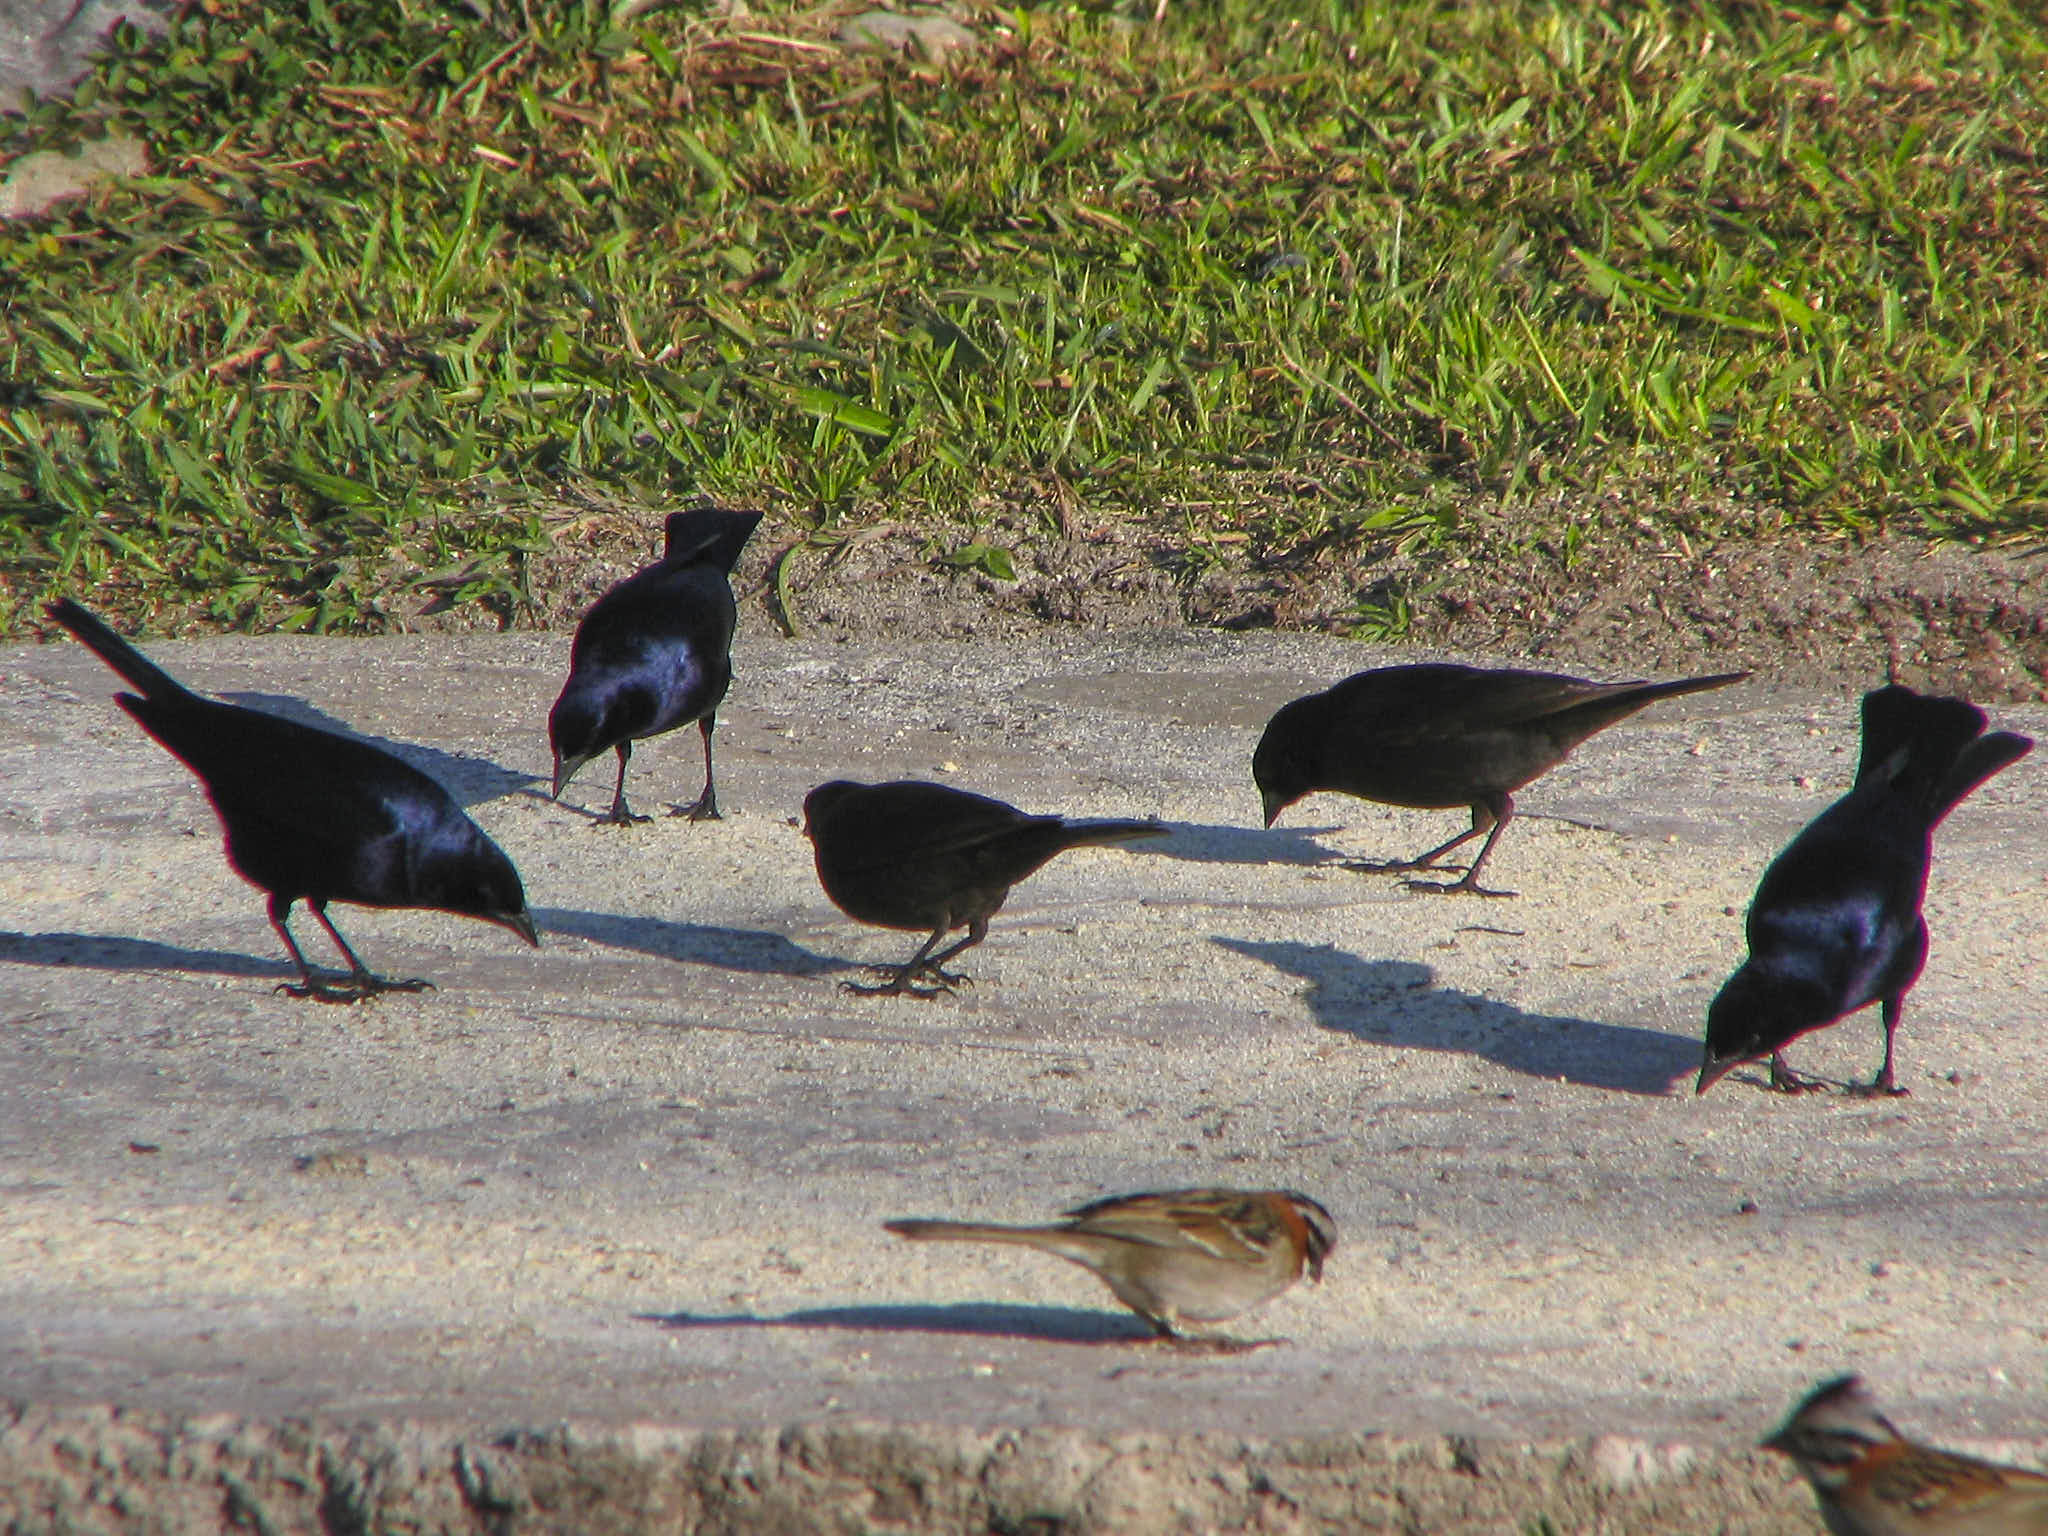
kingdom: Animalia
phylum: Chordata
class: Aves
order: Passeriformes
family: Icteridae
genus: Molothrus
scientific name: Molothrus bonariensis
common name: Shiny cowbird
